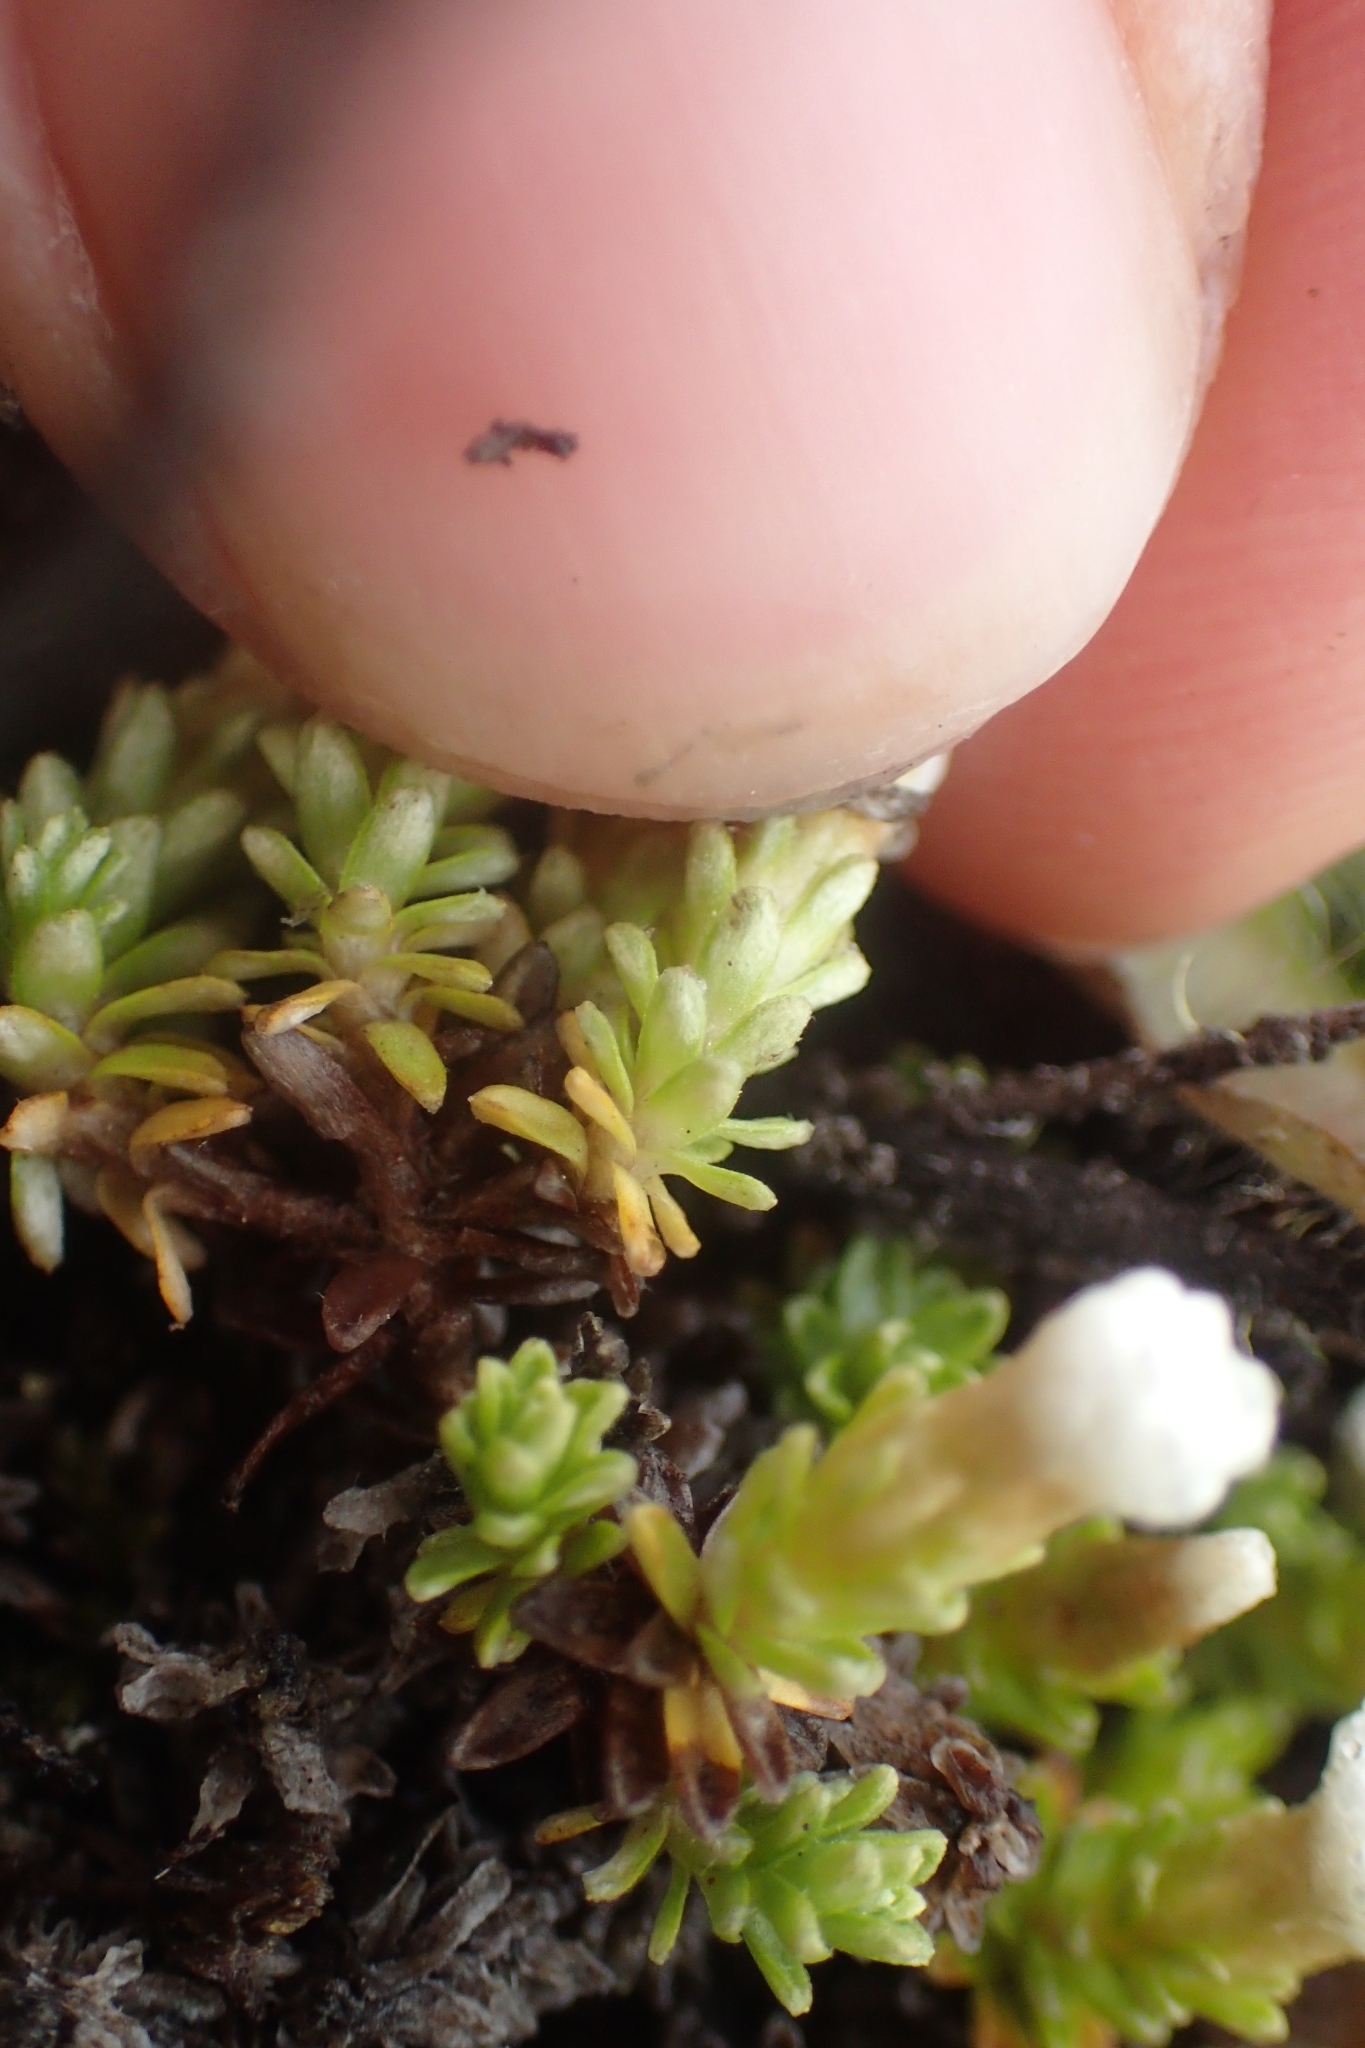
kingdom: Plantae
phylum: Tracheophyta
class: Magnoliopsida
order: Asterales
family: Asteraceae
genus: Raoulia
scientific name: Raoulia subsericea
